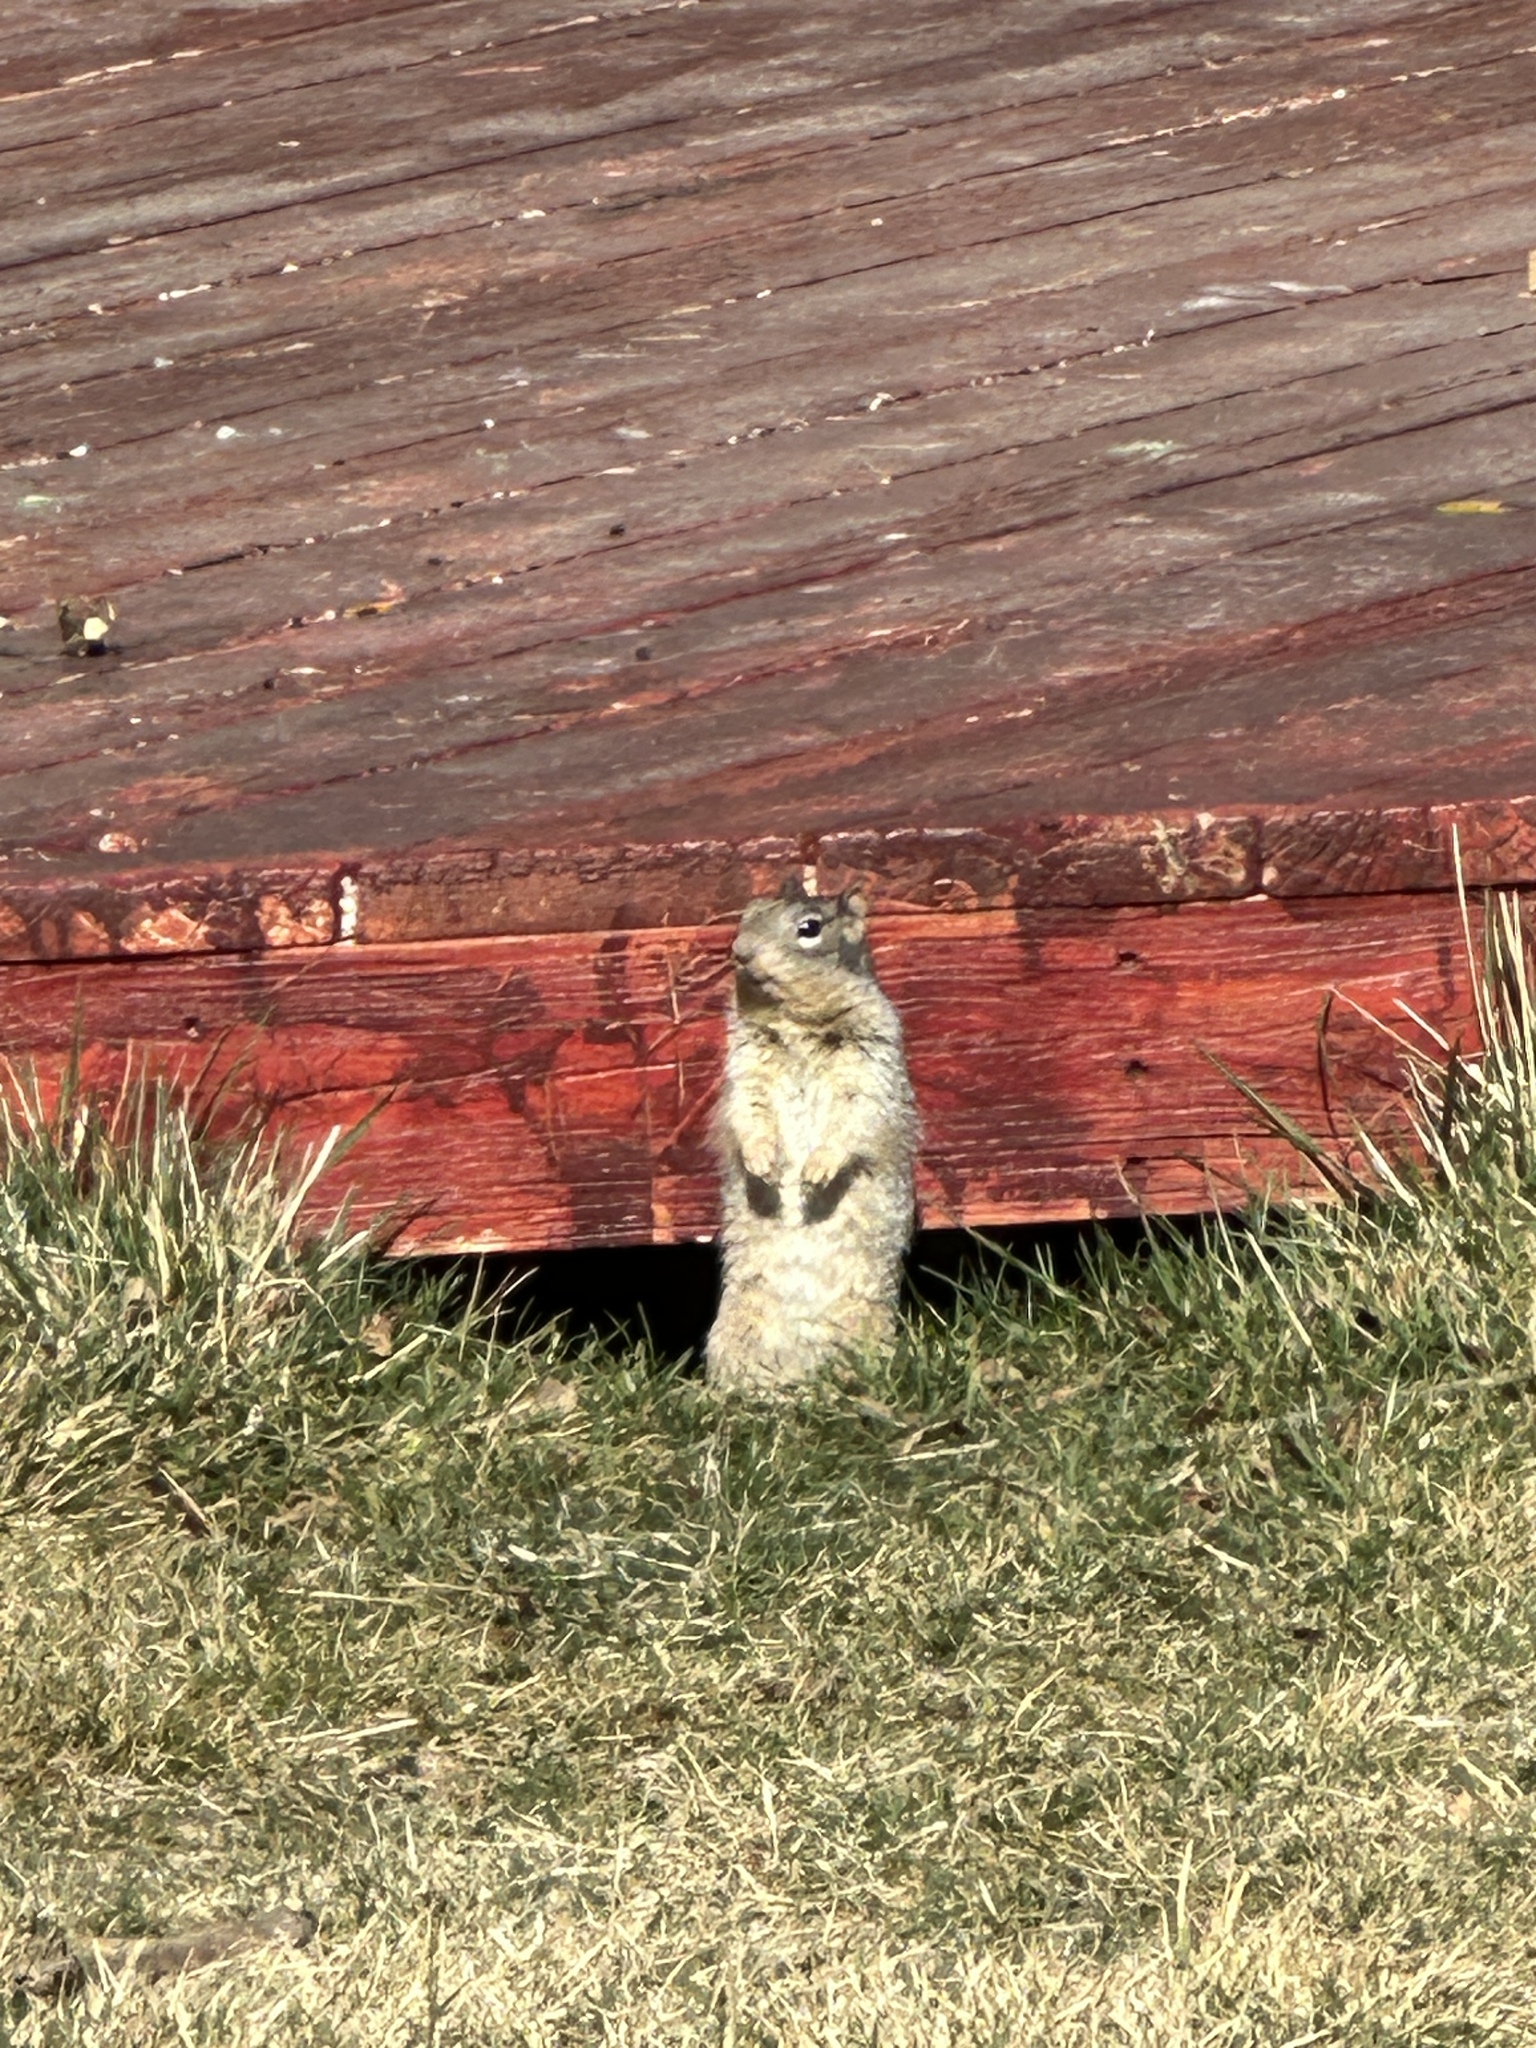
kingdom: Animalia
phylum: Chordata
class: Mammalia
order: Rodentia
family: Sciuridae
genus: Otospermophilus
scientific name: Otospermophilus variegatus
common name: Rock squirrel
